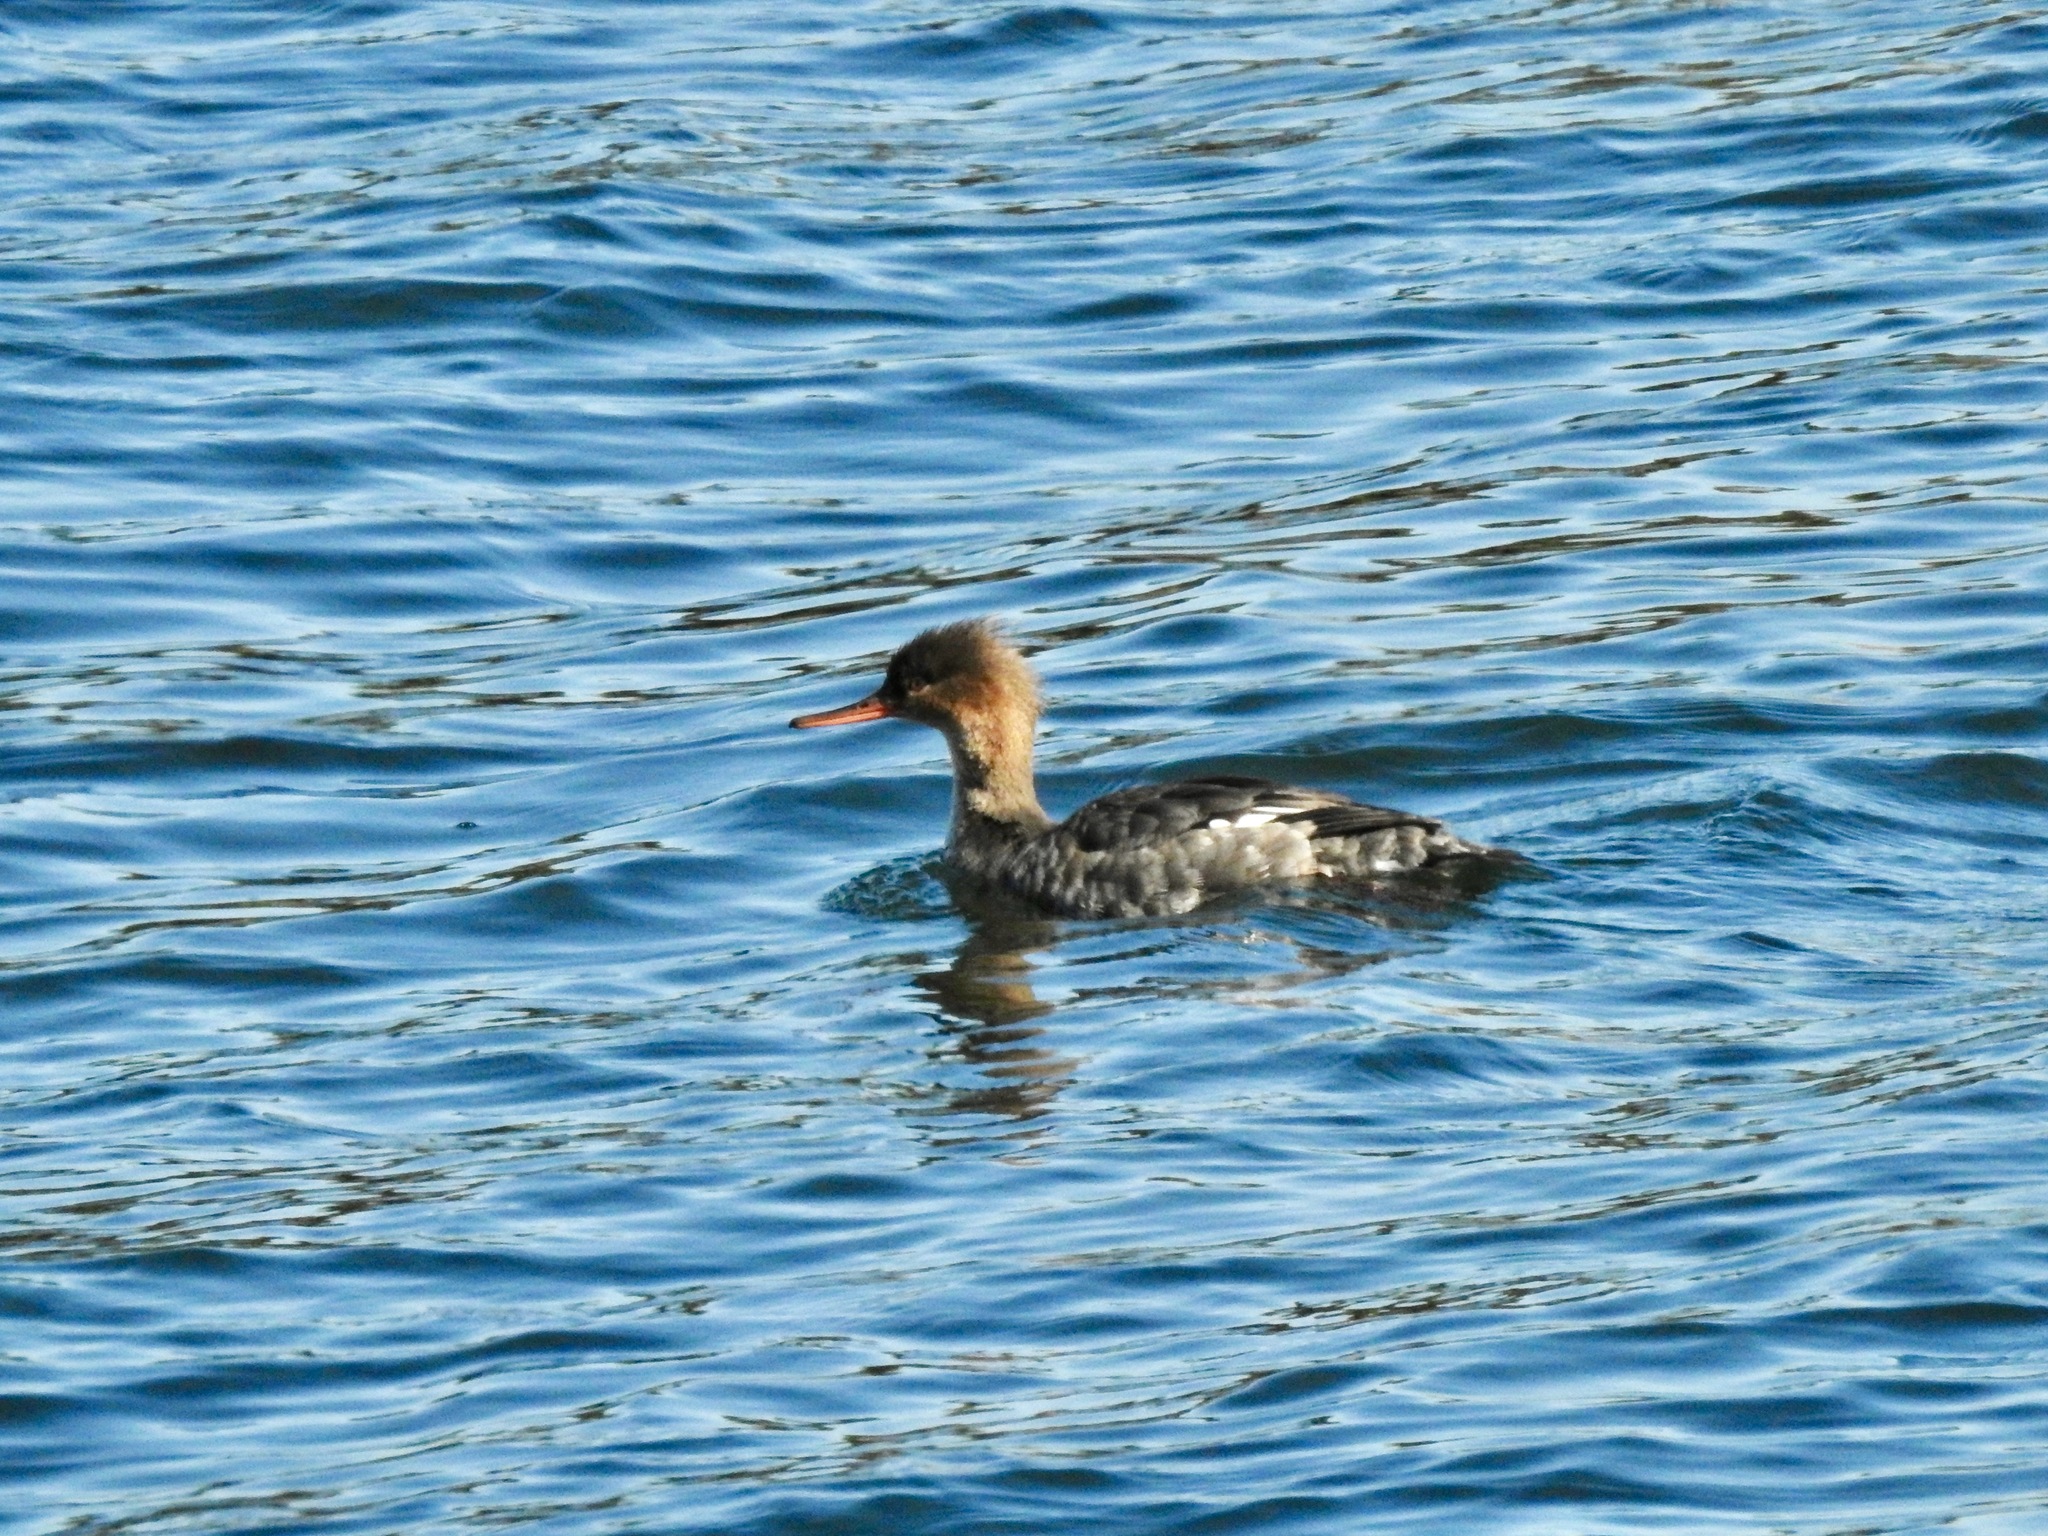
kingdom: Animalia
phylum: Chordata
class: Aves
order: Anseriformes
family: Anatidae
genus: Mergus
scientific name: Mergus serrator
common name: Red-breasted merganser
